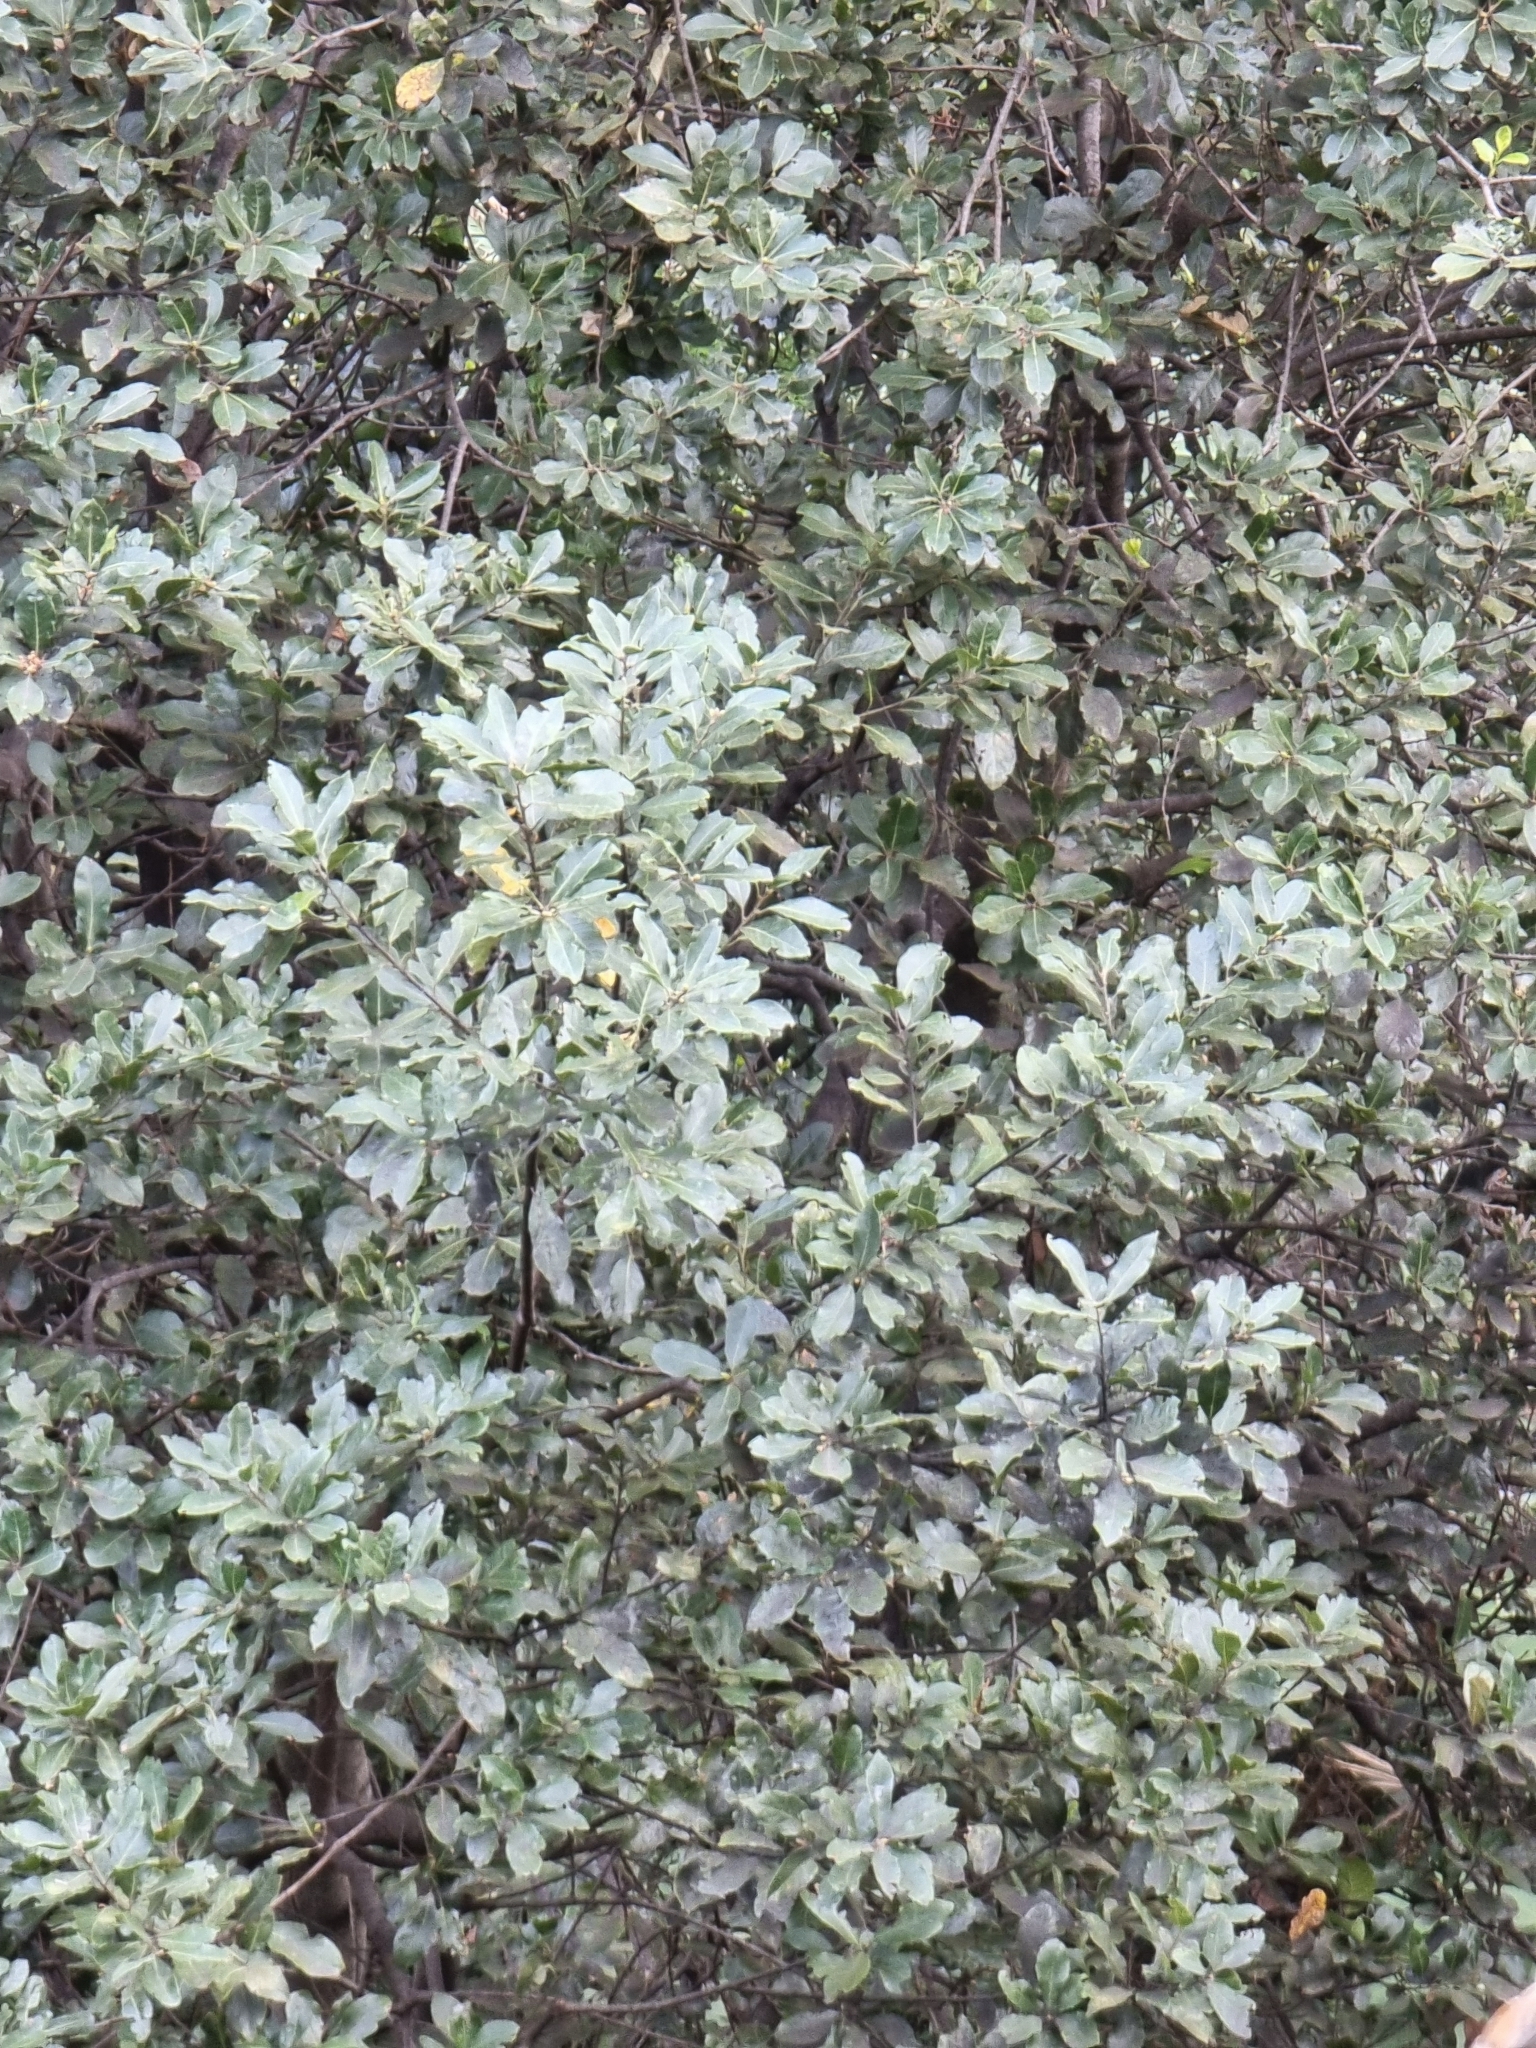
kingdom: Plantae
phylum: Tracheophyta
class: Magnoliopsida
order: Laurales
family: Lauraceae
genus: Laurus
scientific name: Laurus novocanariensis
